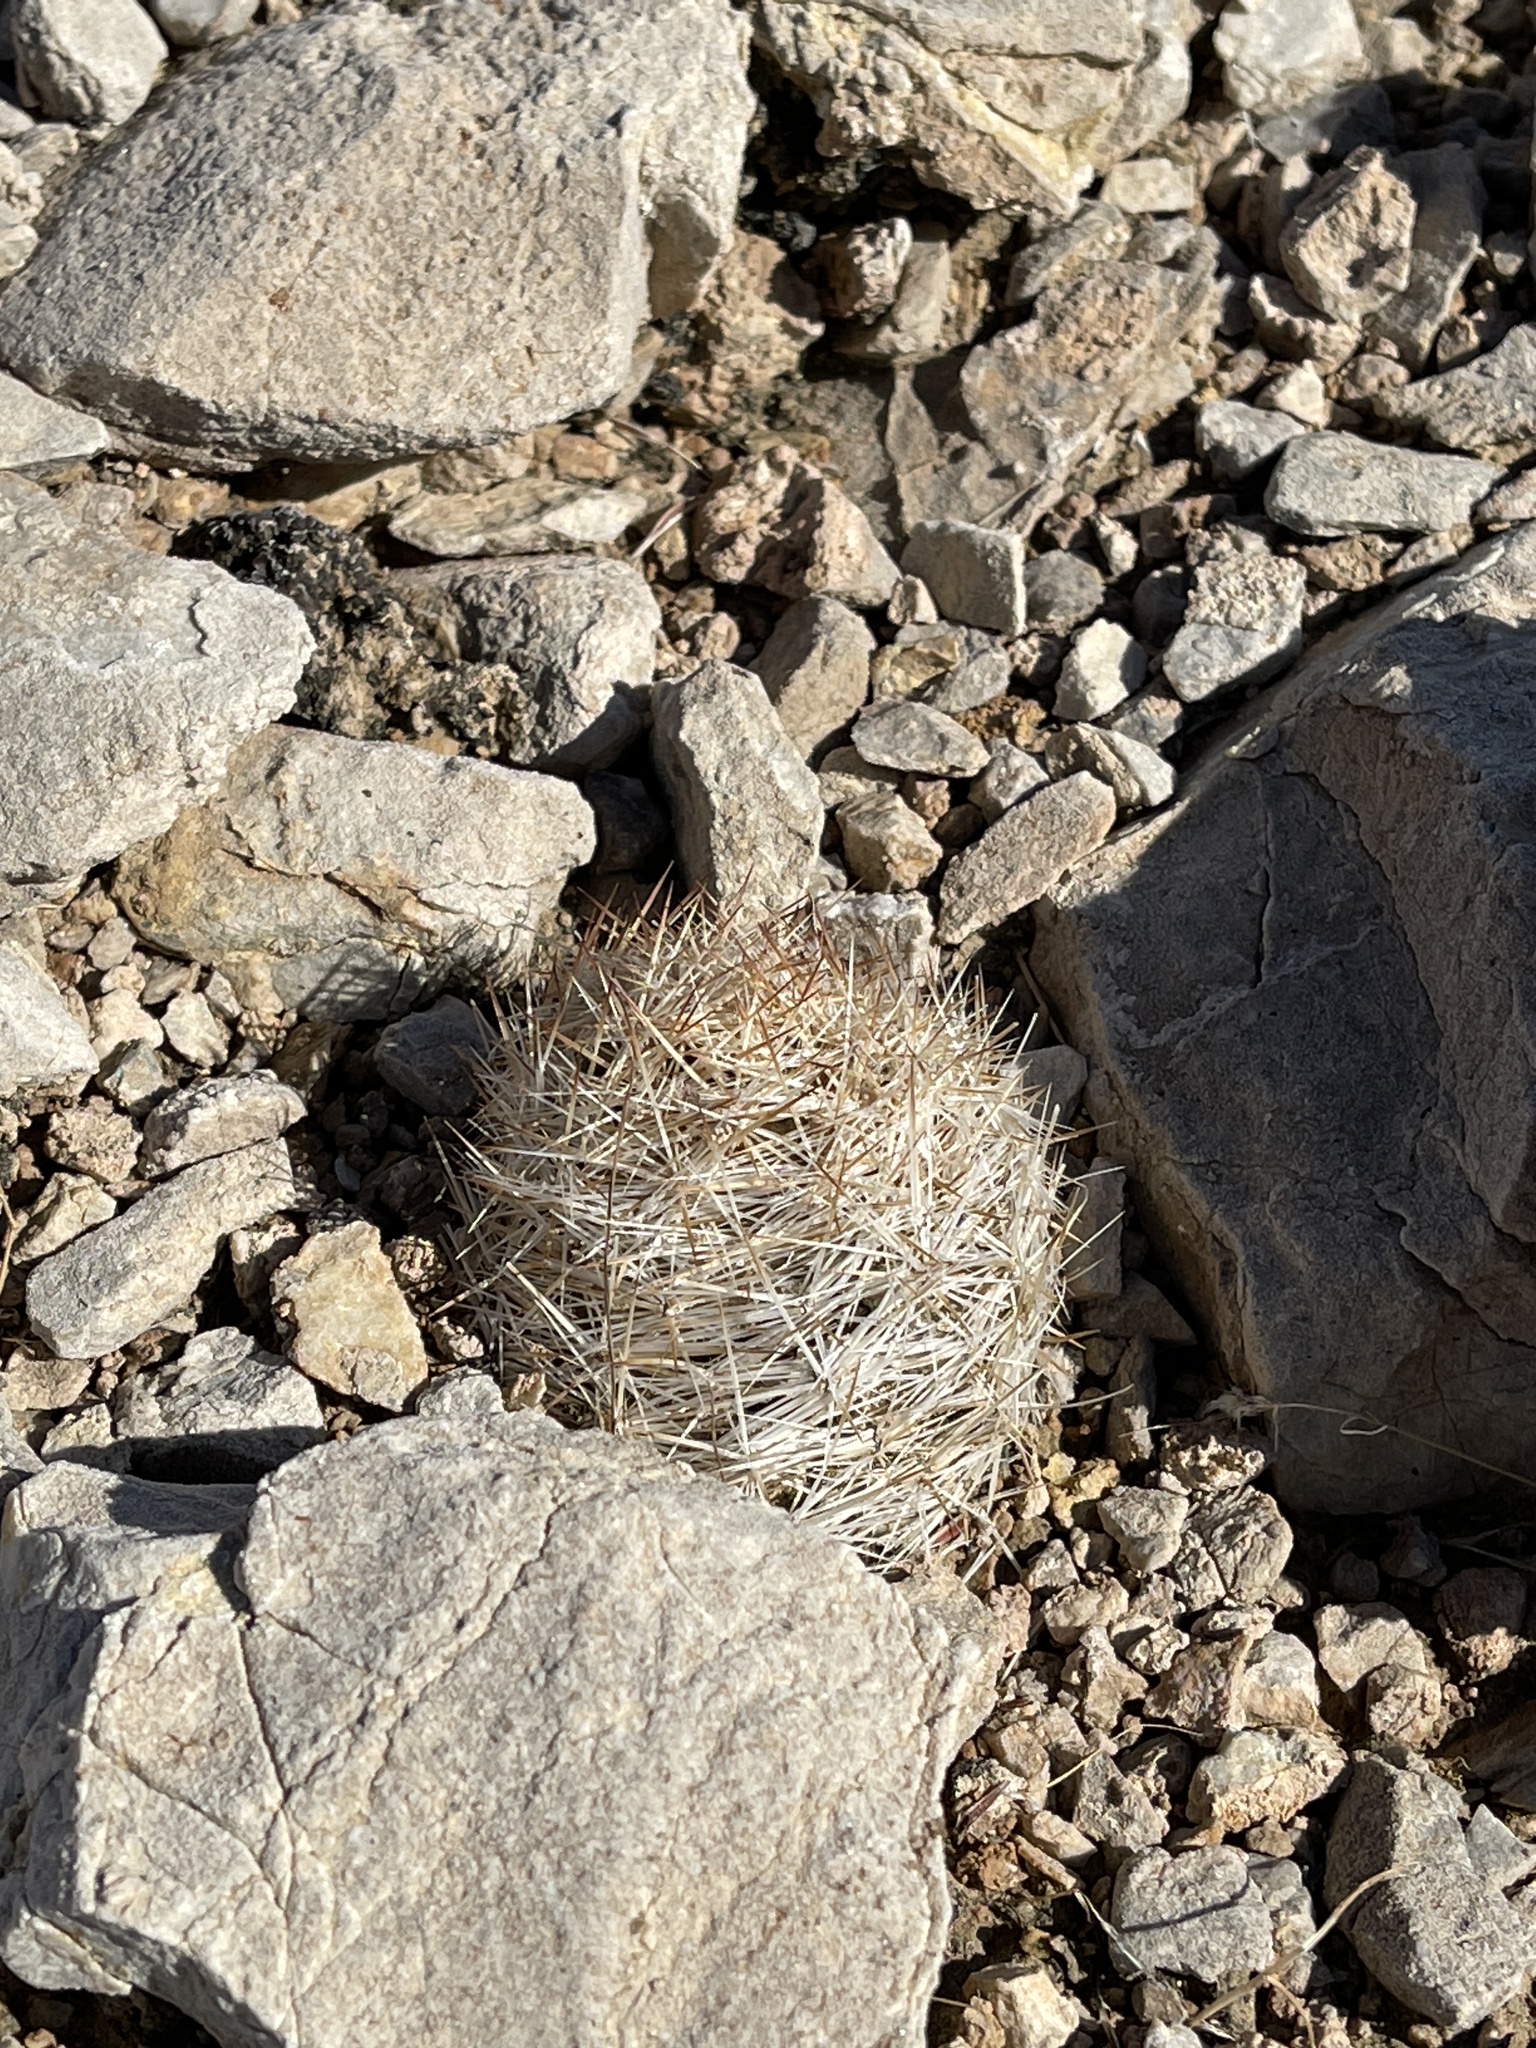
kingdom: Plantae
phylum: Tracheophyta
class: Magnoliopsida
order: Caryophyllales
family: Cactaceae
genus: Pelecyphora
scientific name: Pelecyphora dasyacantha
